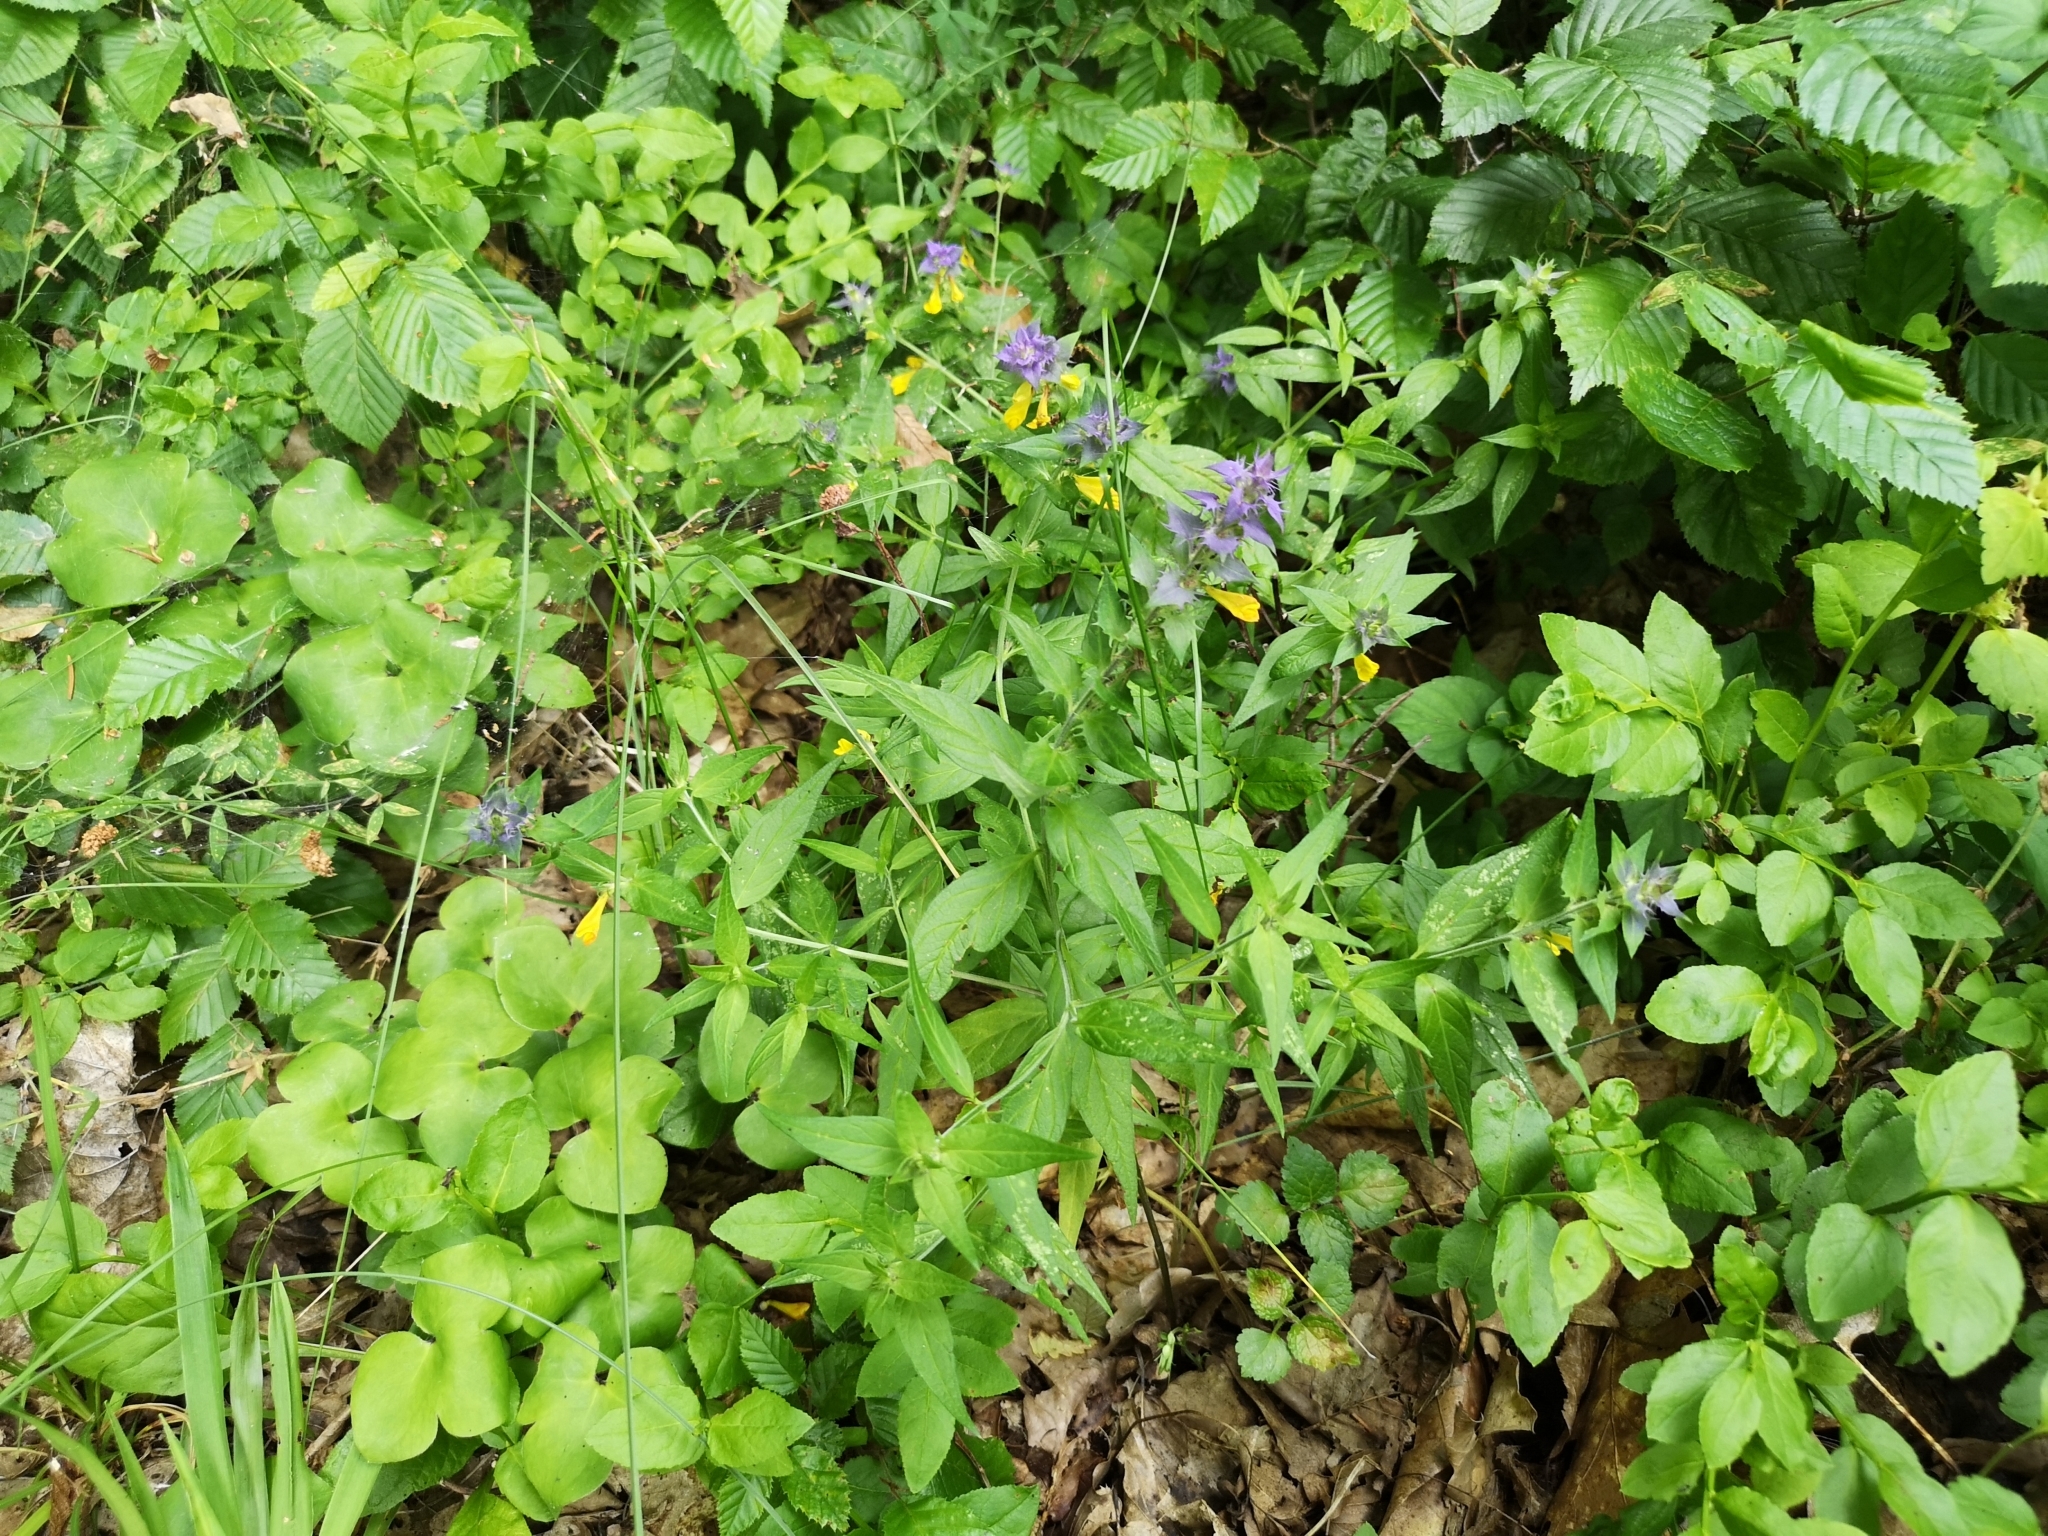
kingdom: Plantae
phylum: Tracheophyta
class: Magnoliopsida
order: Lamiales
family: Orobanchaceae
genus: Melampyrum
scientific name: Melampyrum nemorosum
